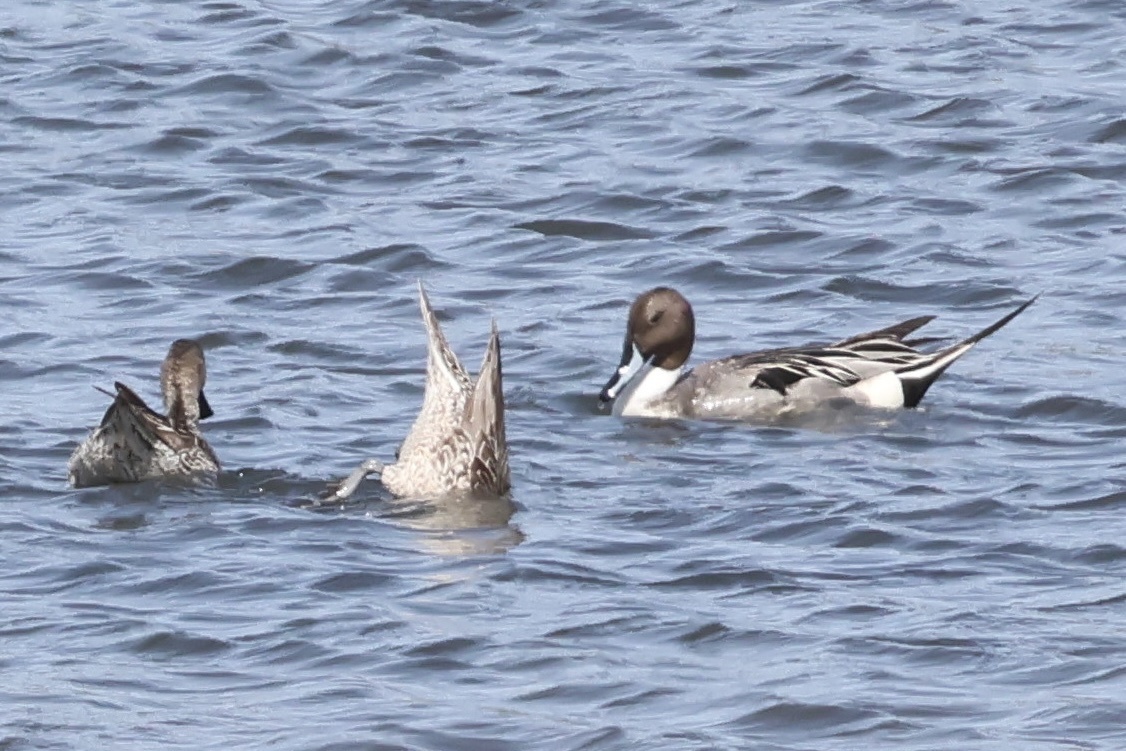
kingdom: Animalia
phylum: Chordata
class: Aves
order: Anseriformes
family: Anatidae
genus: Anas
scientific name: Anas acuta
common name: Northern pintail
